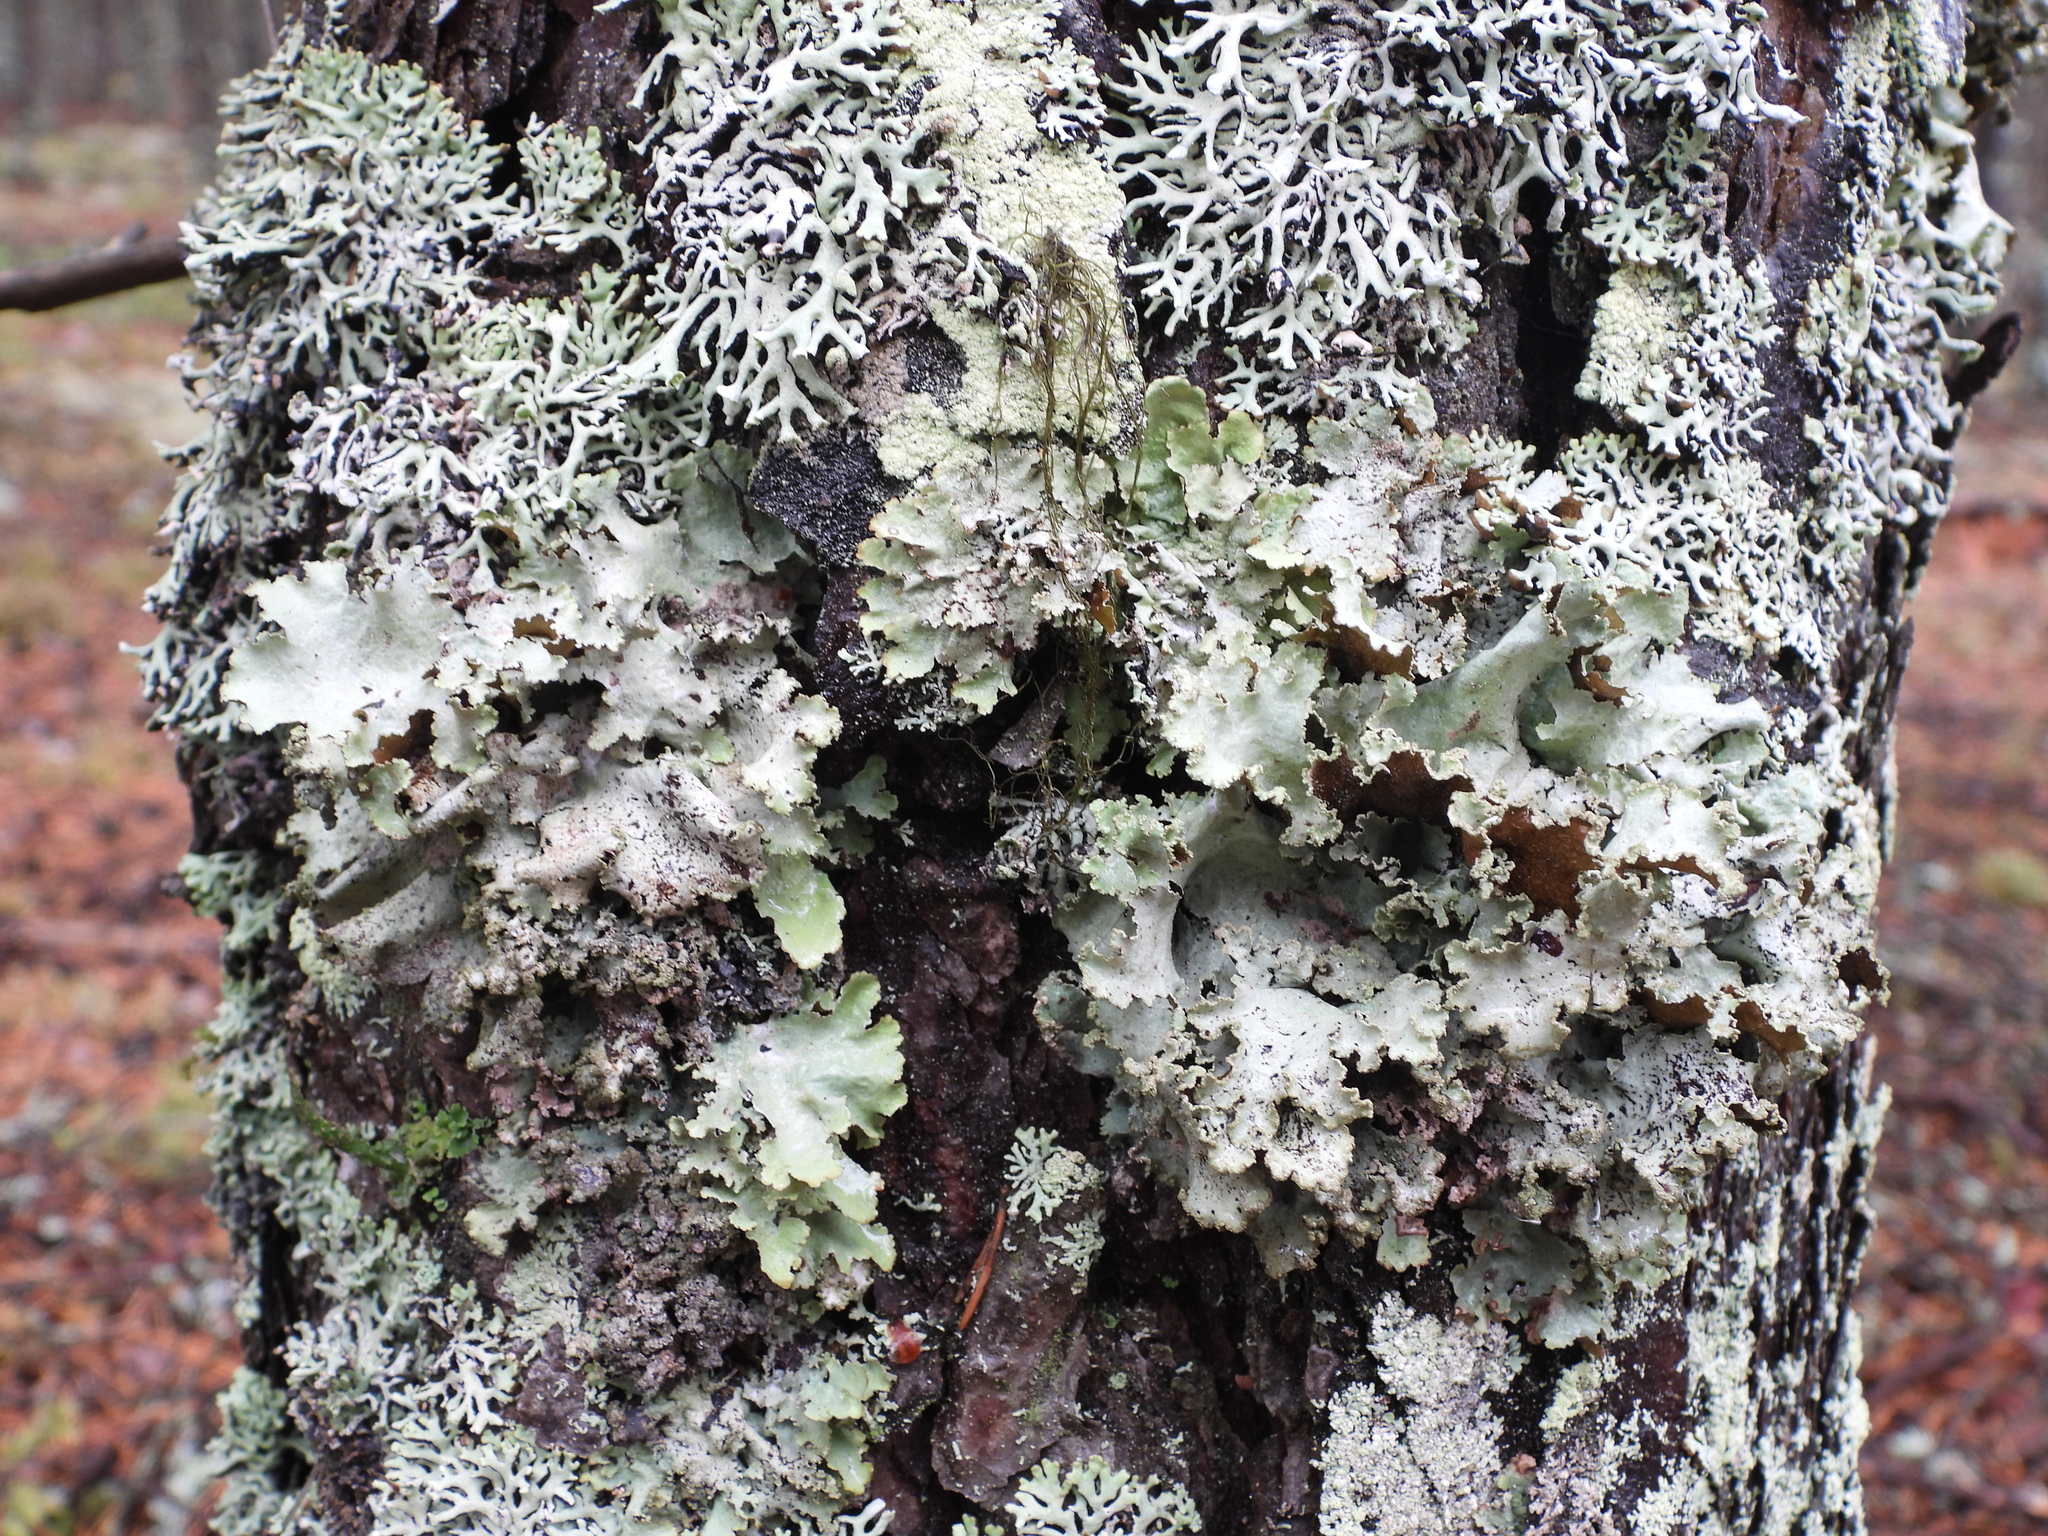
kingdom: Fungi
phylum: Ascomycota
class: Lecanoromycetes
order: Lecanorales
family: Parmeliaceae
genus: Platismatia
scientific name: Platismatia glauca
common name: Varied rag lichen
